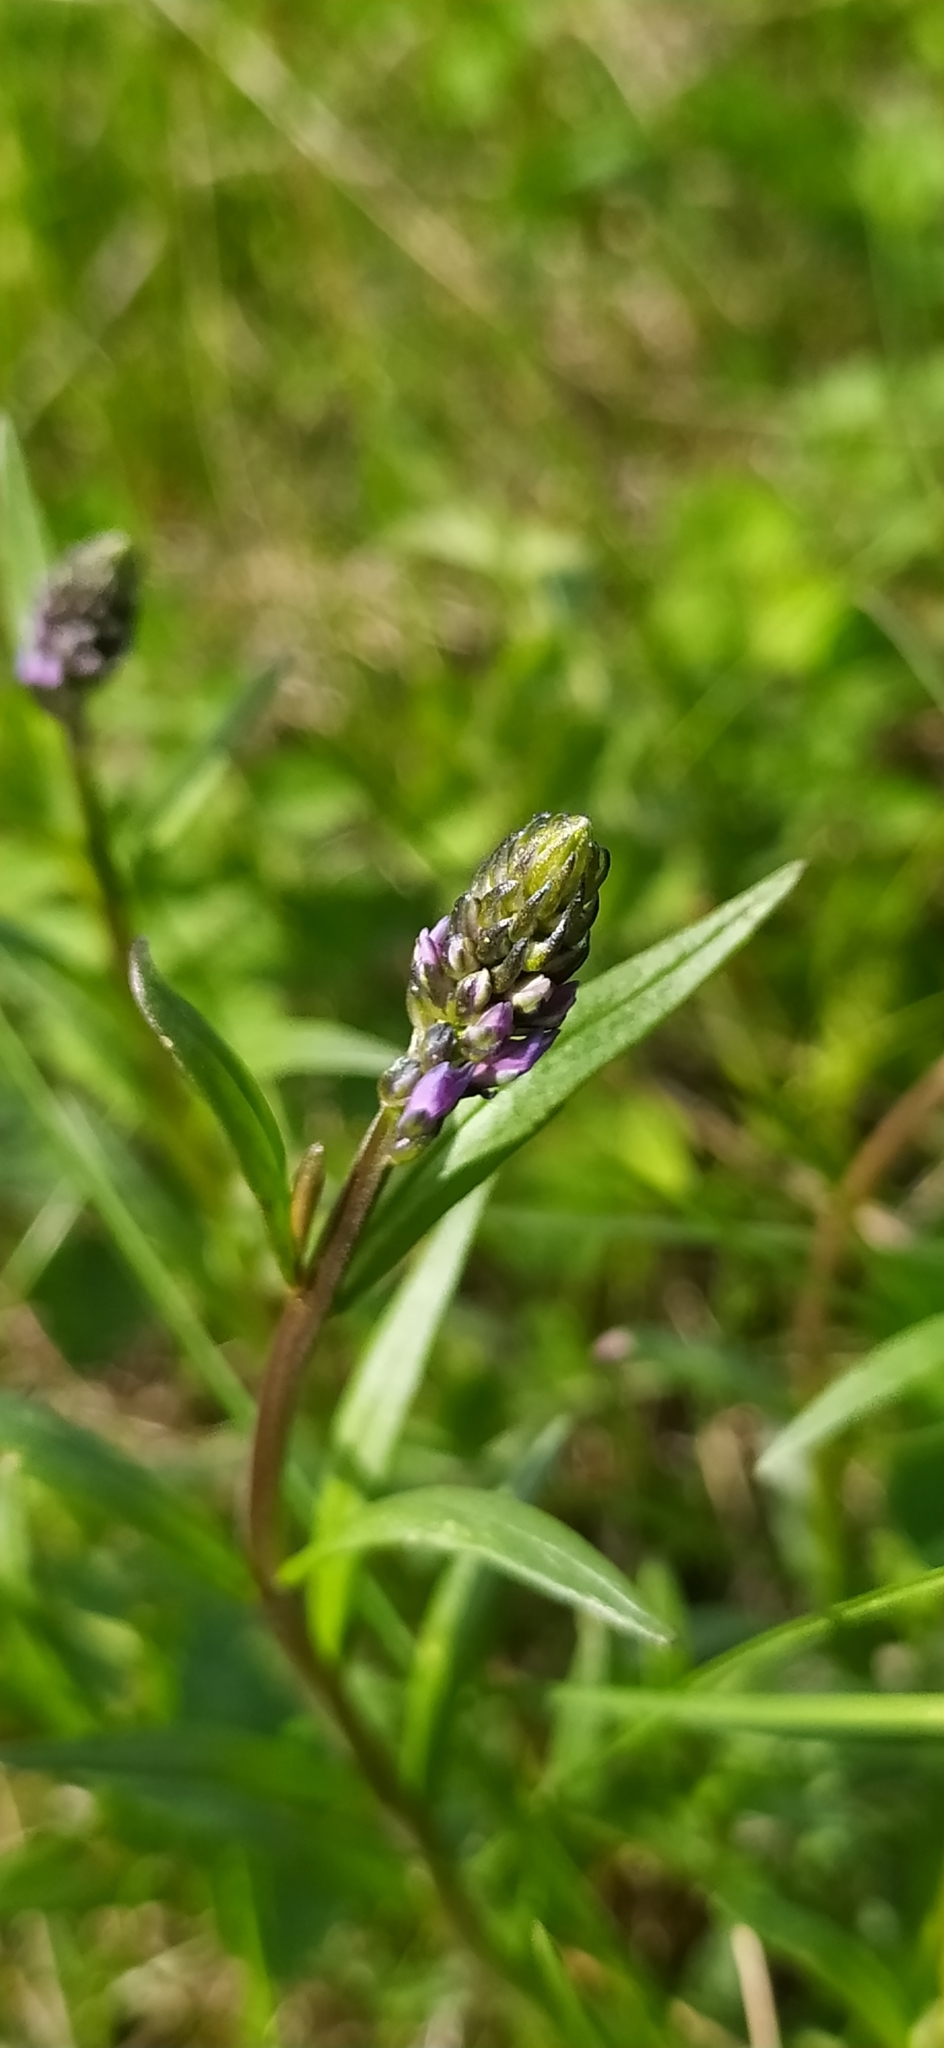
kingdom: Plantae
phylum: Tracheophyta
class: Magnoliopsida
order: Fabales
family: Polygalaceae
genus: Polygala
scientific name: Polygala comosa
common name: Tufted milkwort
